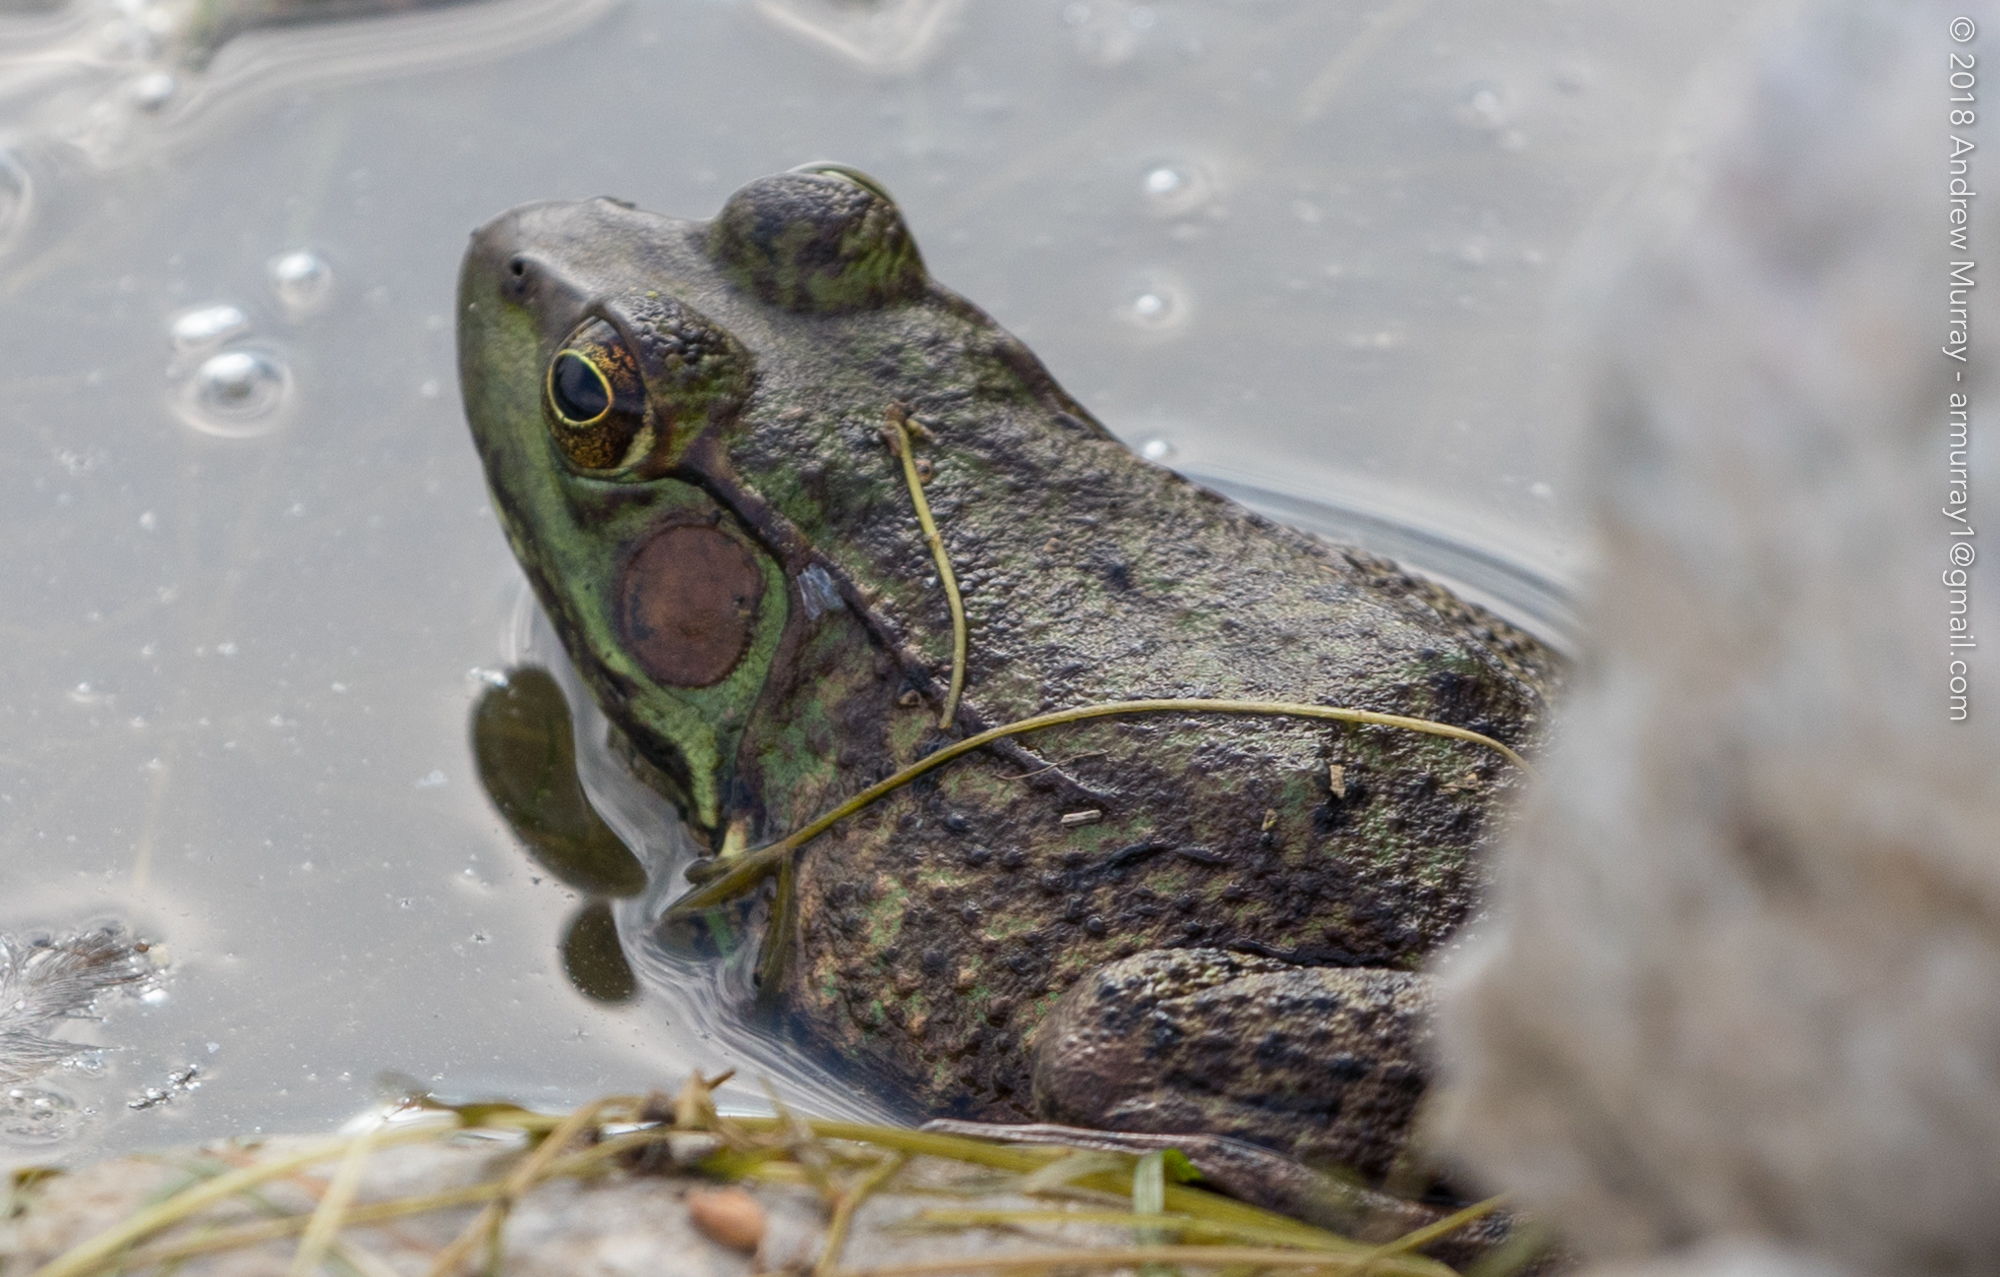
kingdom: Animalia
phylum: Chordata
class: Amphibia
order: Anura
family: Ranidae
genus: Lithobates
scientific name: Lithobates clamitans
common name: Green frog
